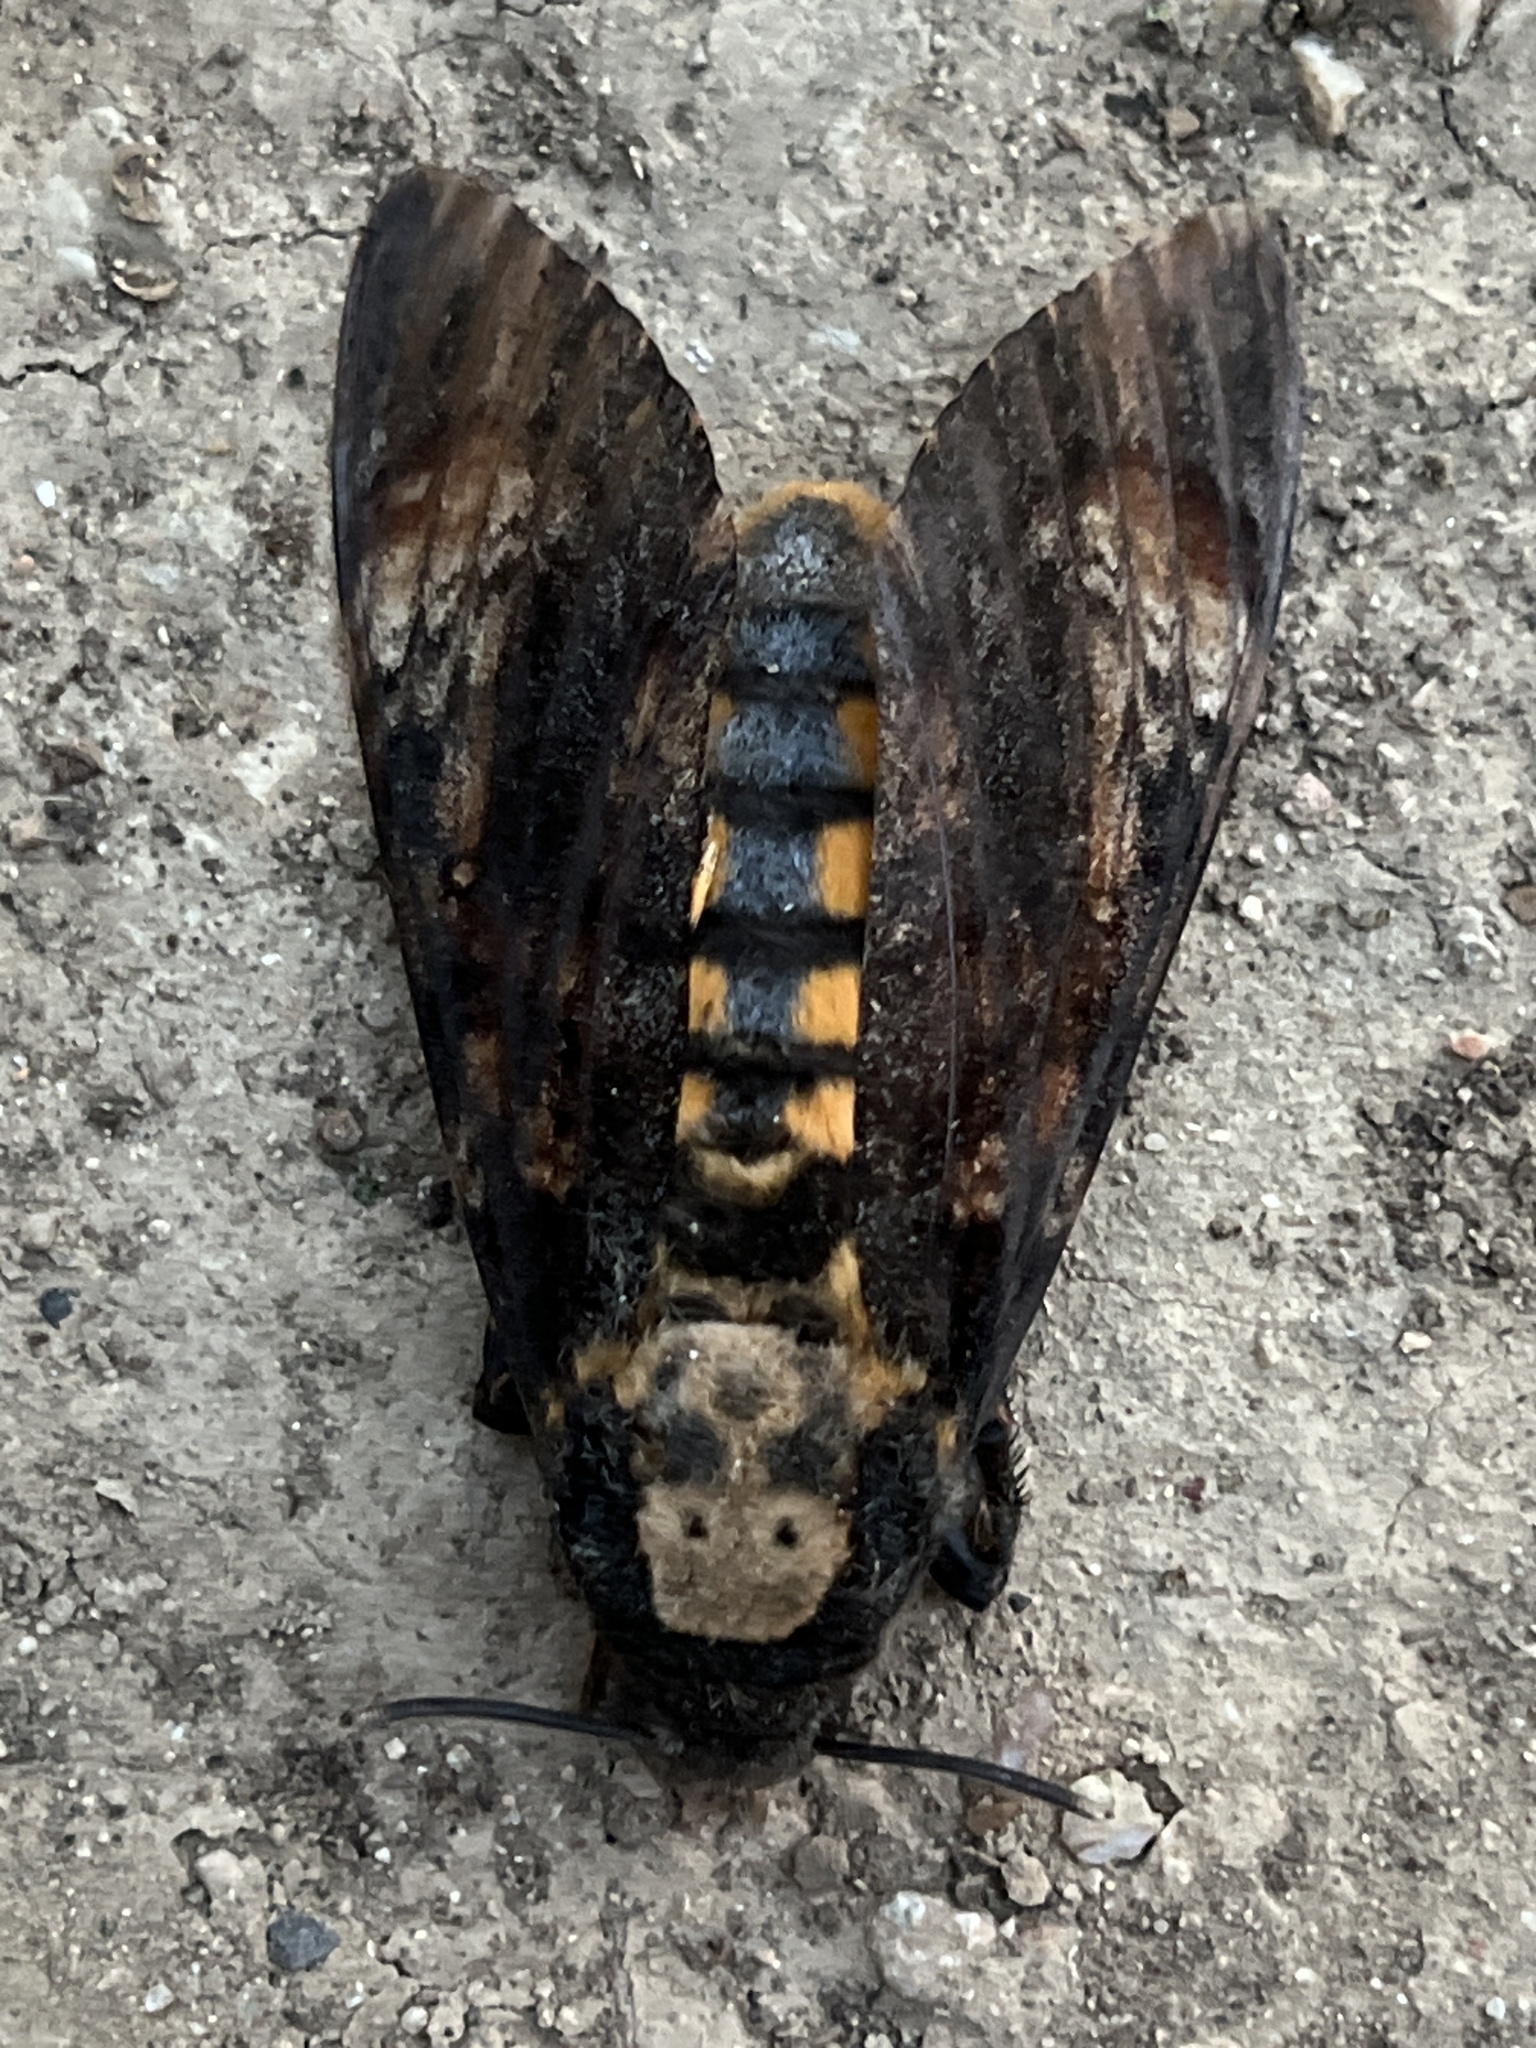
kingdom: Animalia
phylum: Arthropoda
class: Insecta
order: Lepidoptera
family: Sphingidae
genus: Acherontia
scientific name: Acherontia atropos
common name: Death's-head hawk moth
